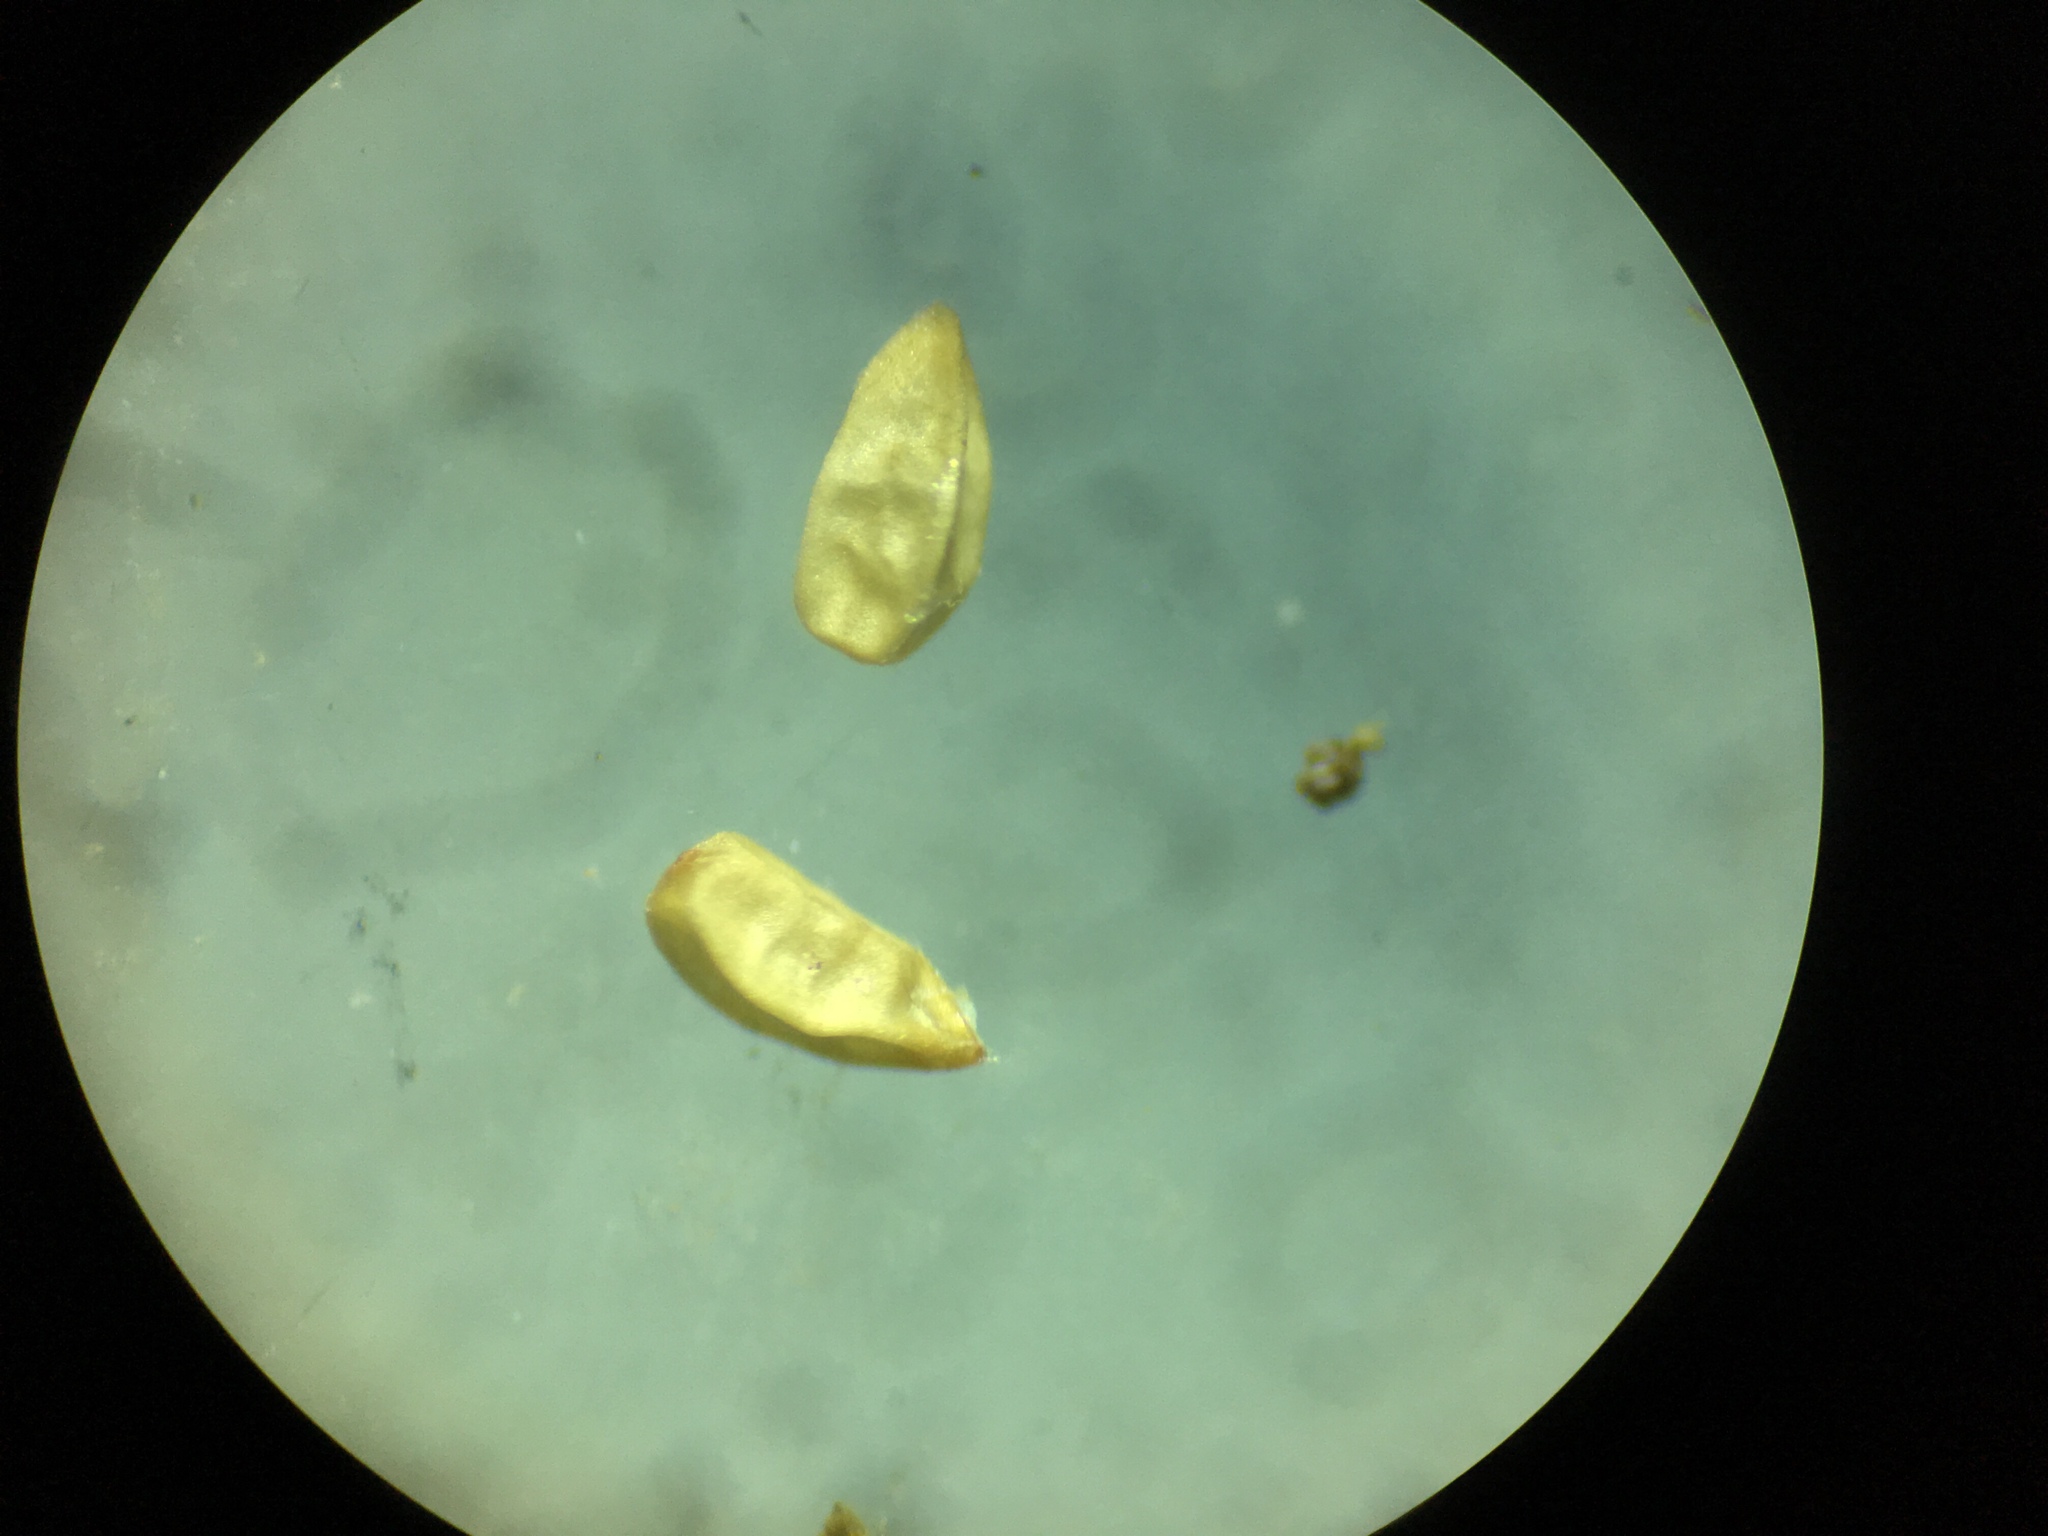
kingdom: Plantae
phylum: Tracheophyta
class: Magnoliopsida
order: Malpighiales
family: Euphorbiaceae
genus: Euphorbia
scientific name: Euphorbia golondrina
